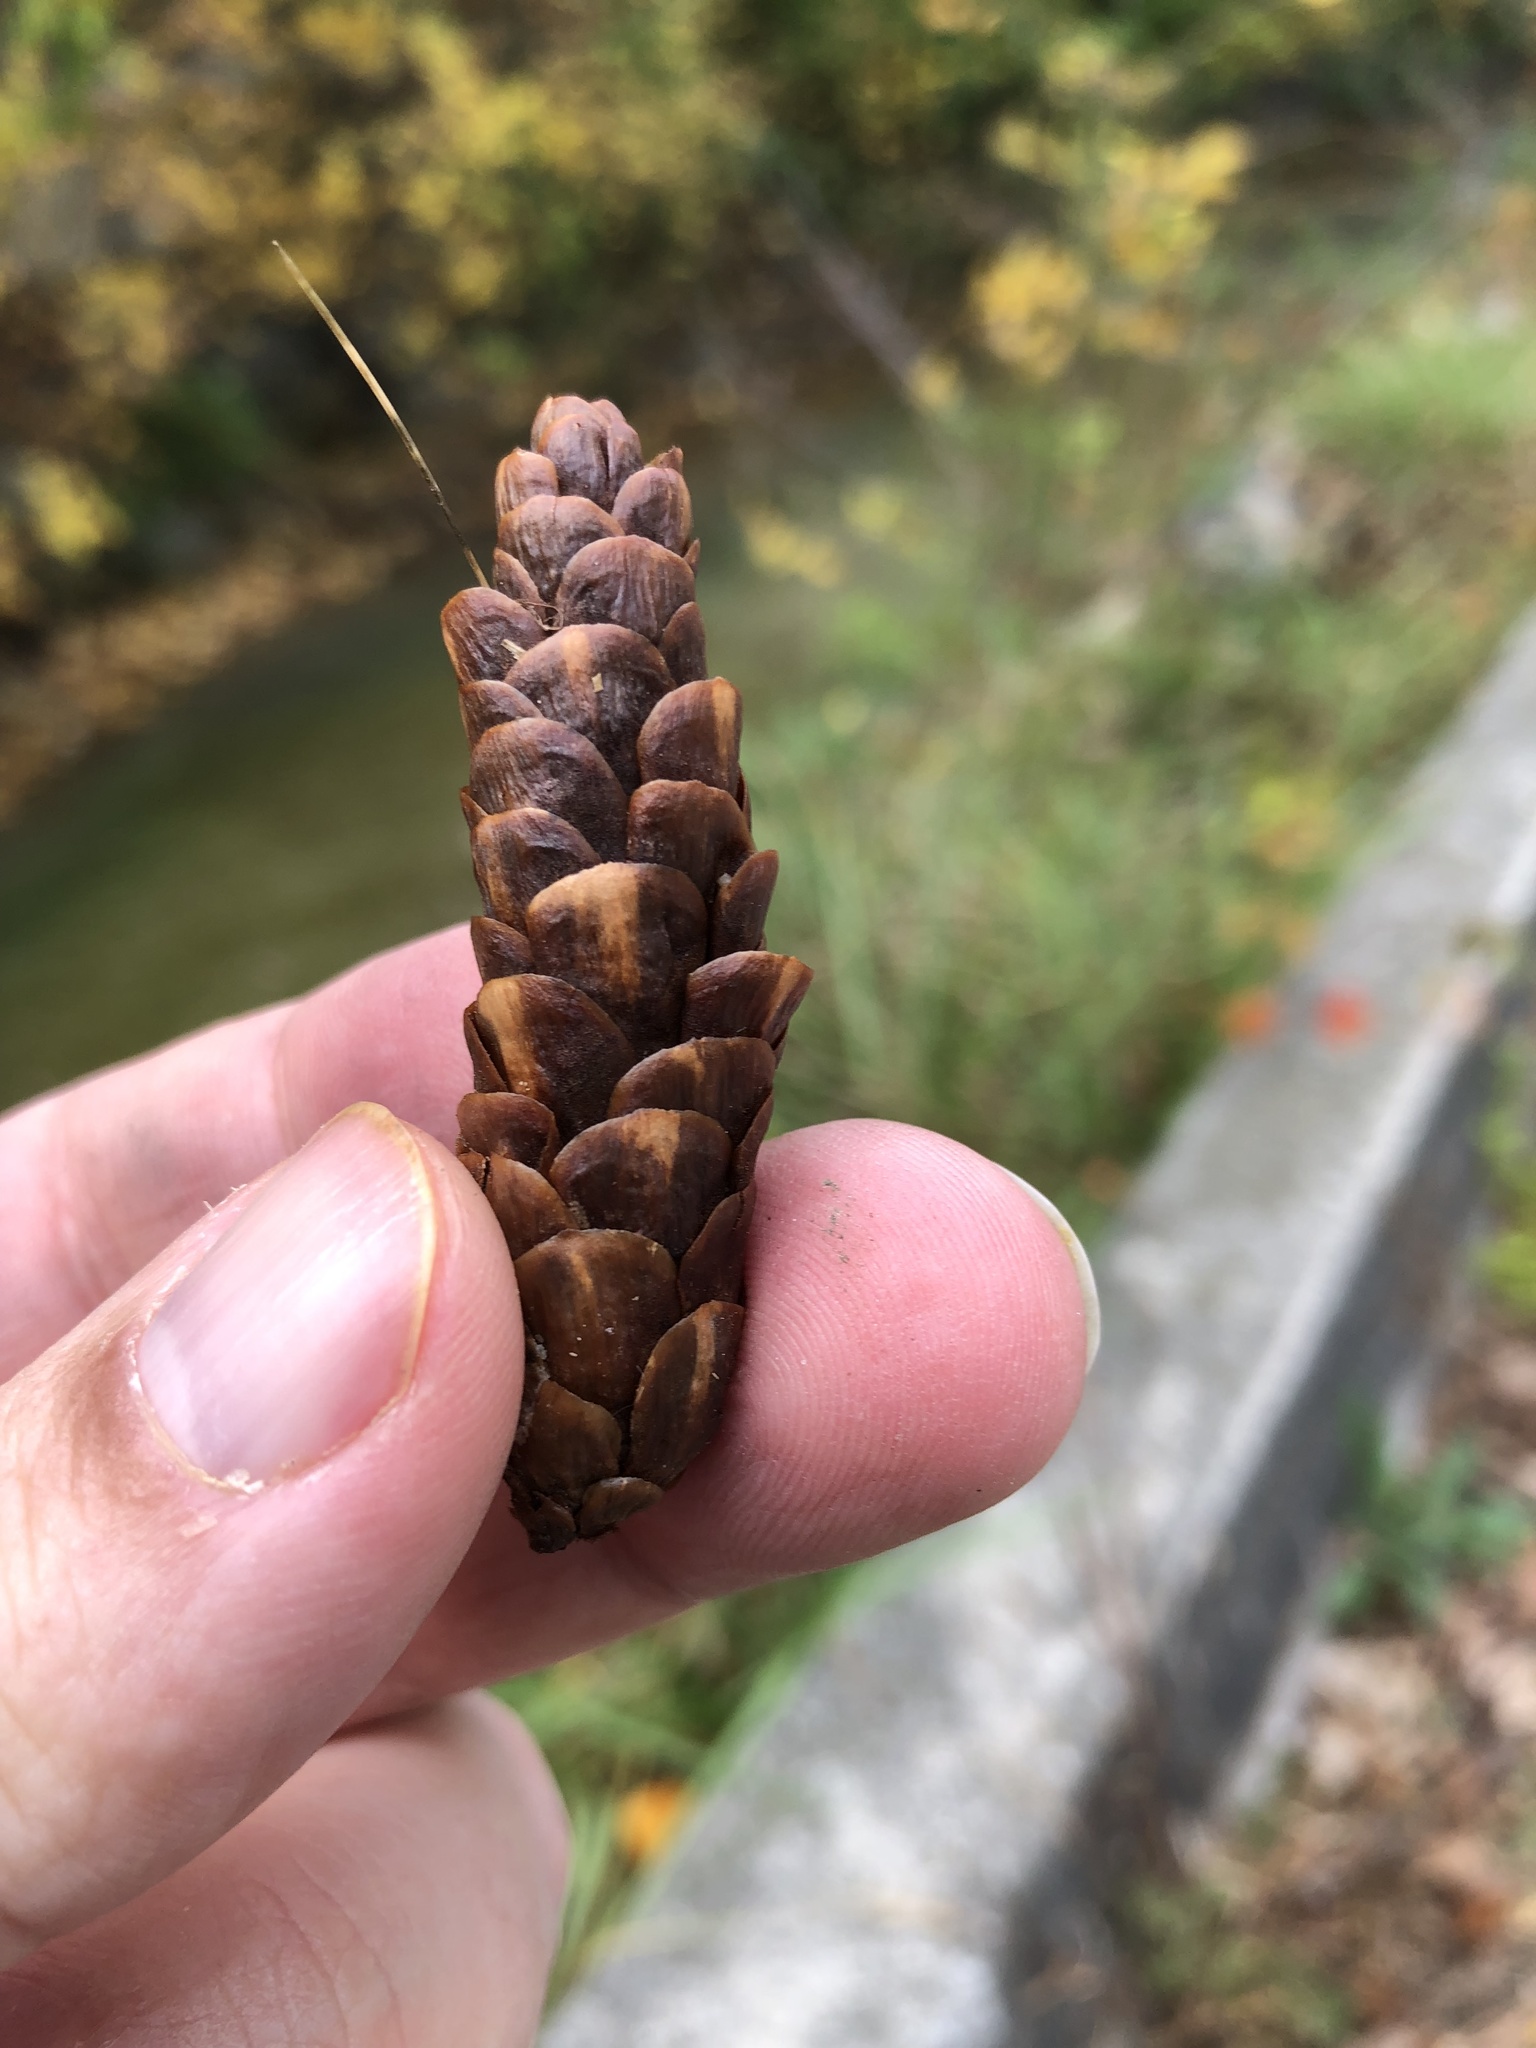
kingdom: Plantae
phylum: Tracheophyta
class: Pinopsida
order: Pinales
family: Pinaceae
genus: Picea
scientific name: Picea glauca
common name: White spruce
